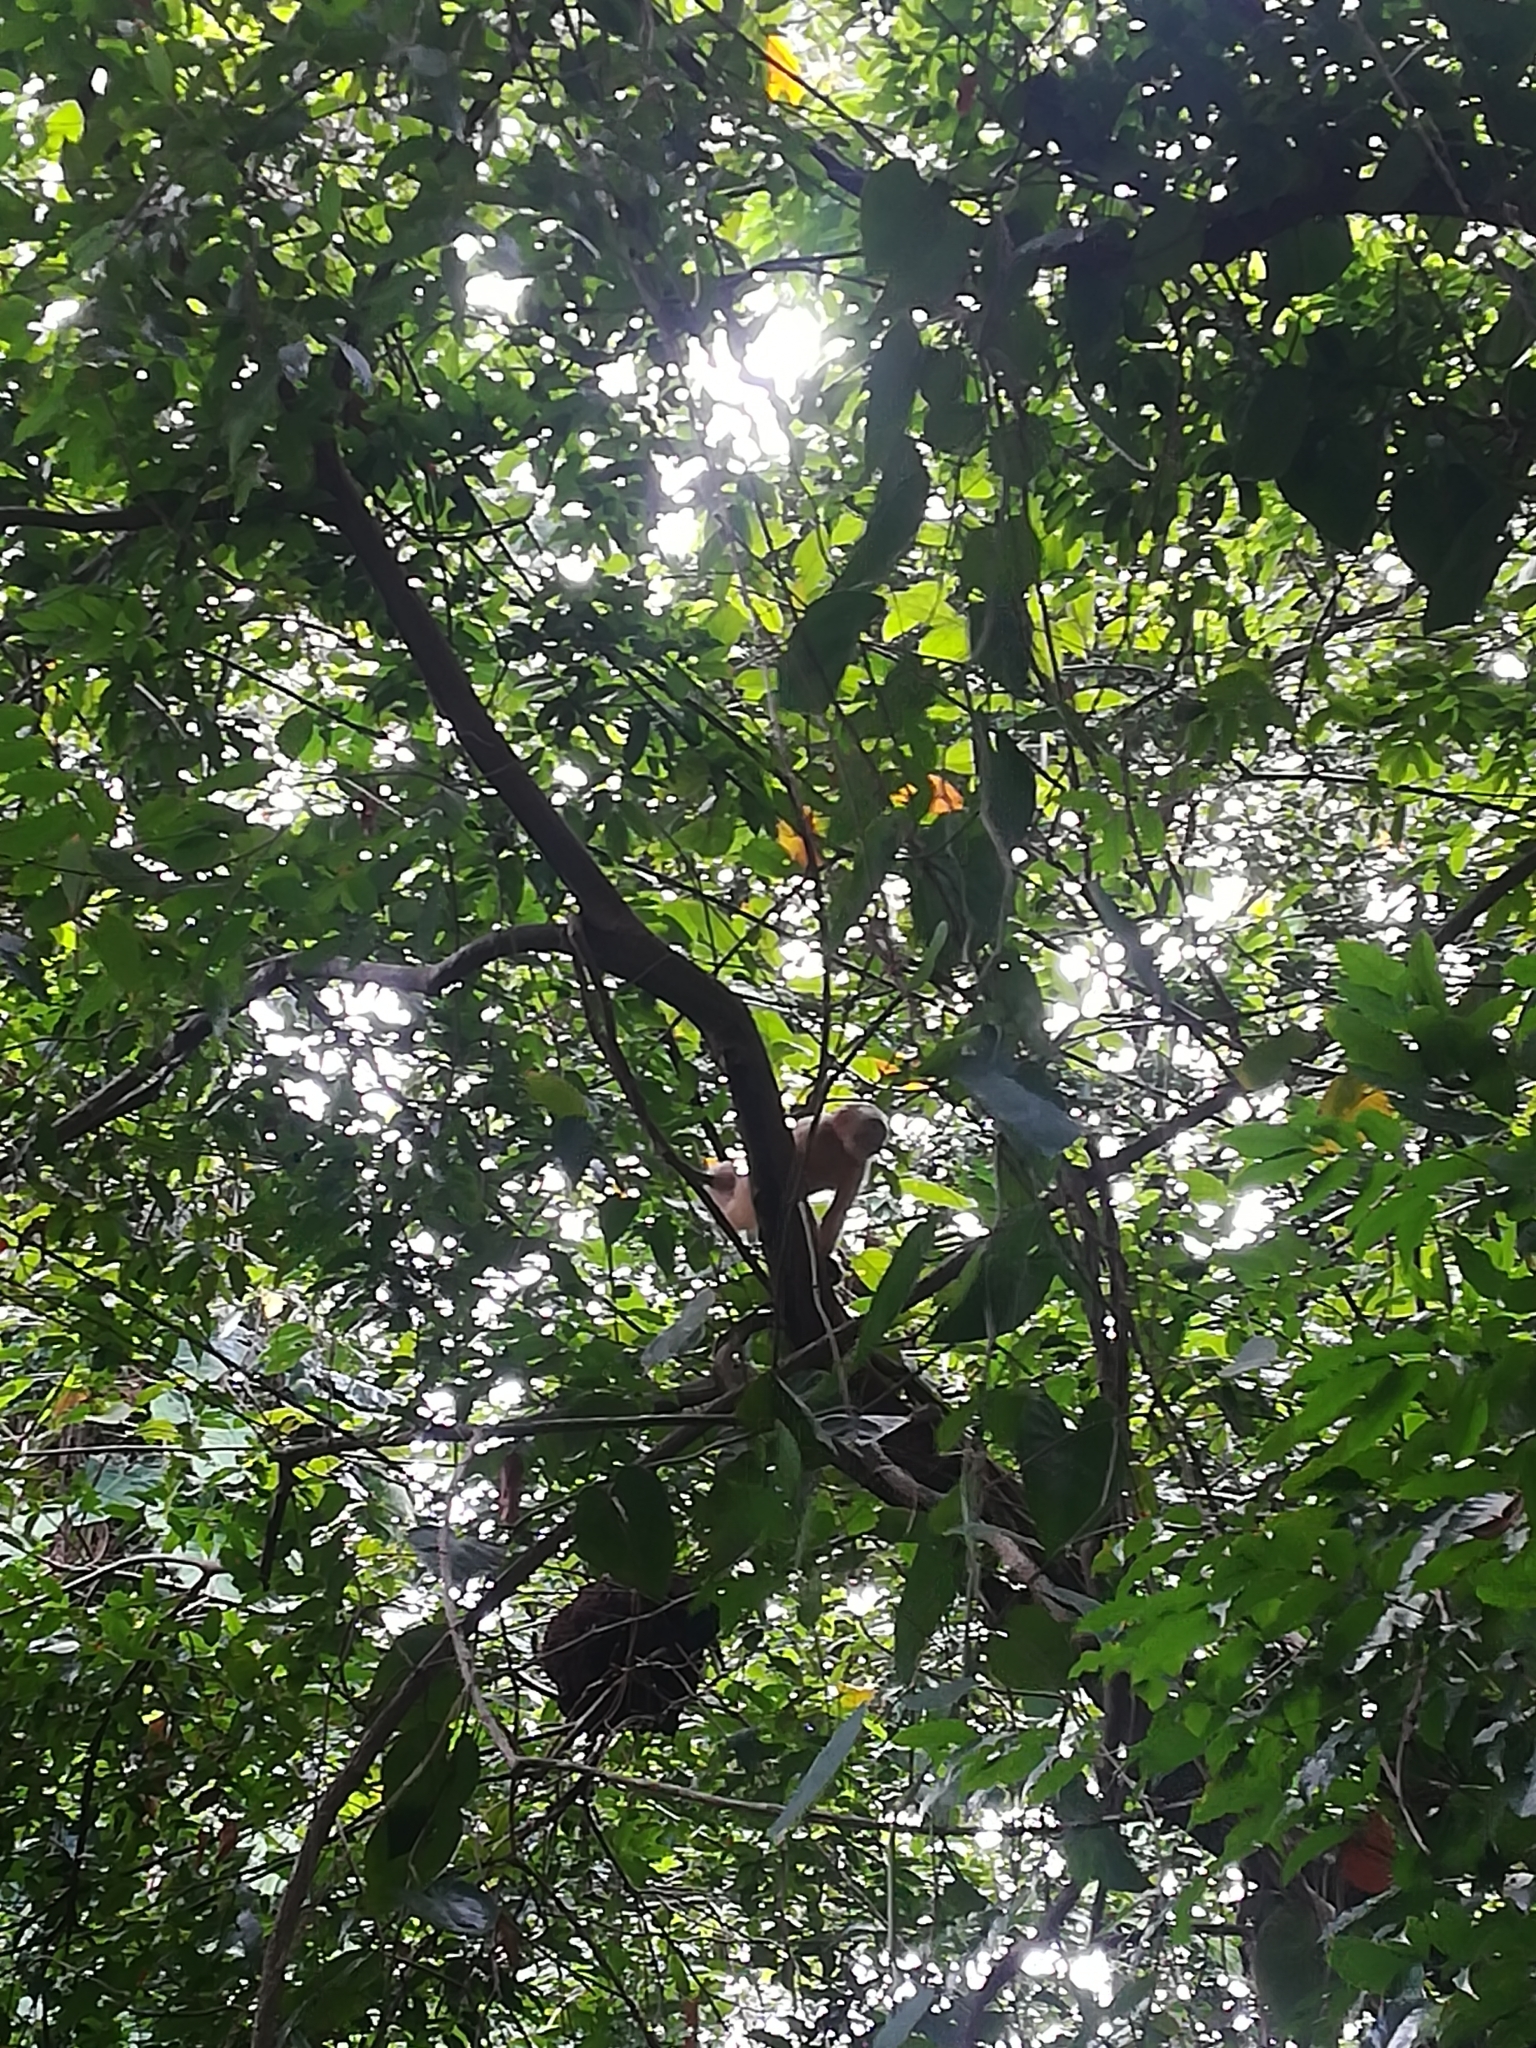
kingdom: Animalia
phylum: Chordata
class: Mammalia
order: Primates
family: Cebidae
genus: Cebus
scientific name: Cebus trinitatis
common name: Trinidad white-fronted capuchin
